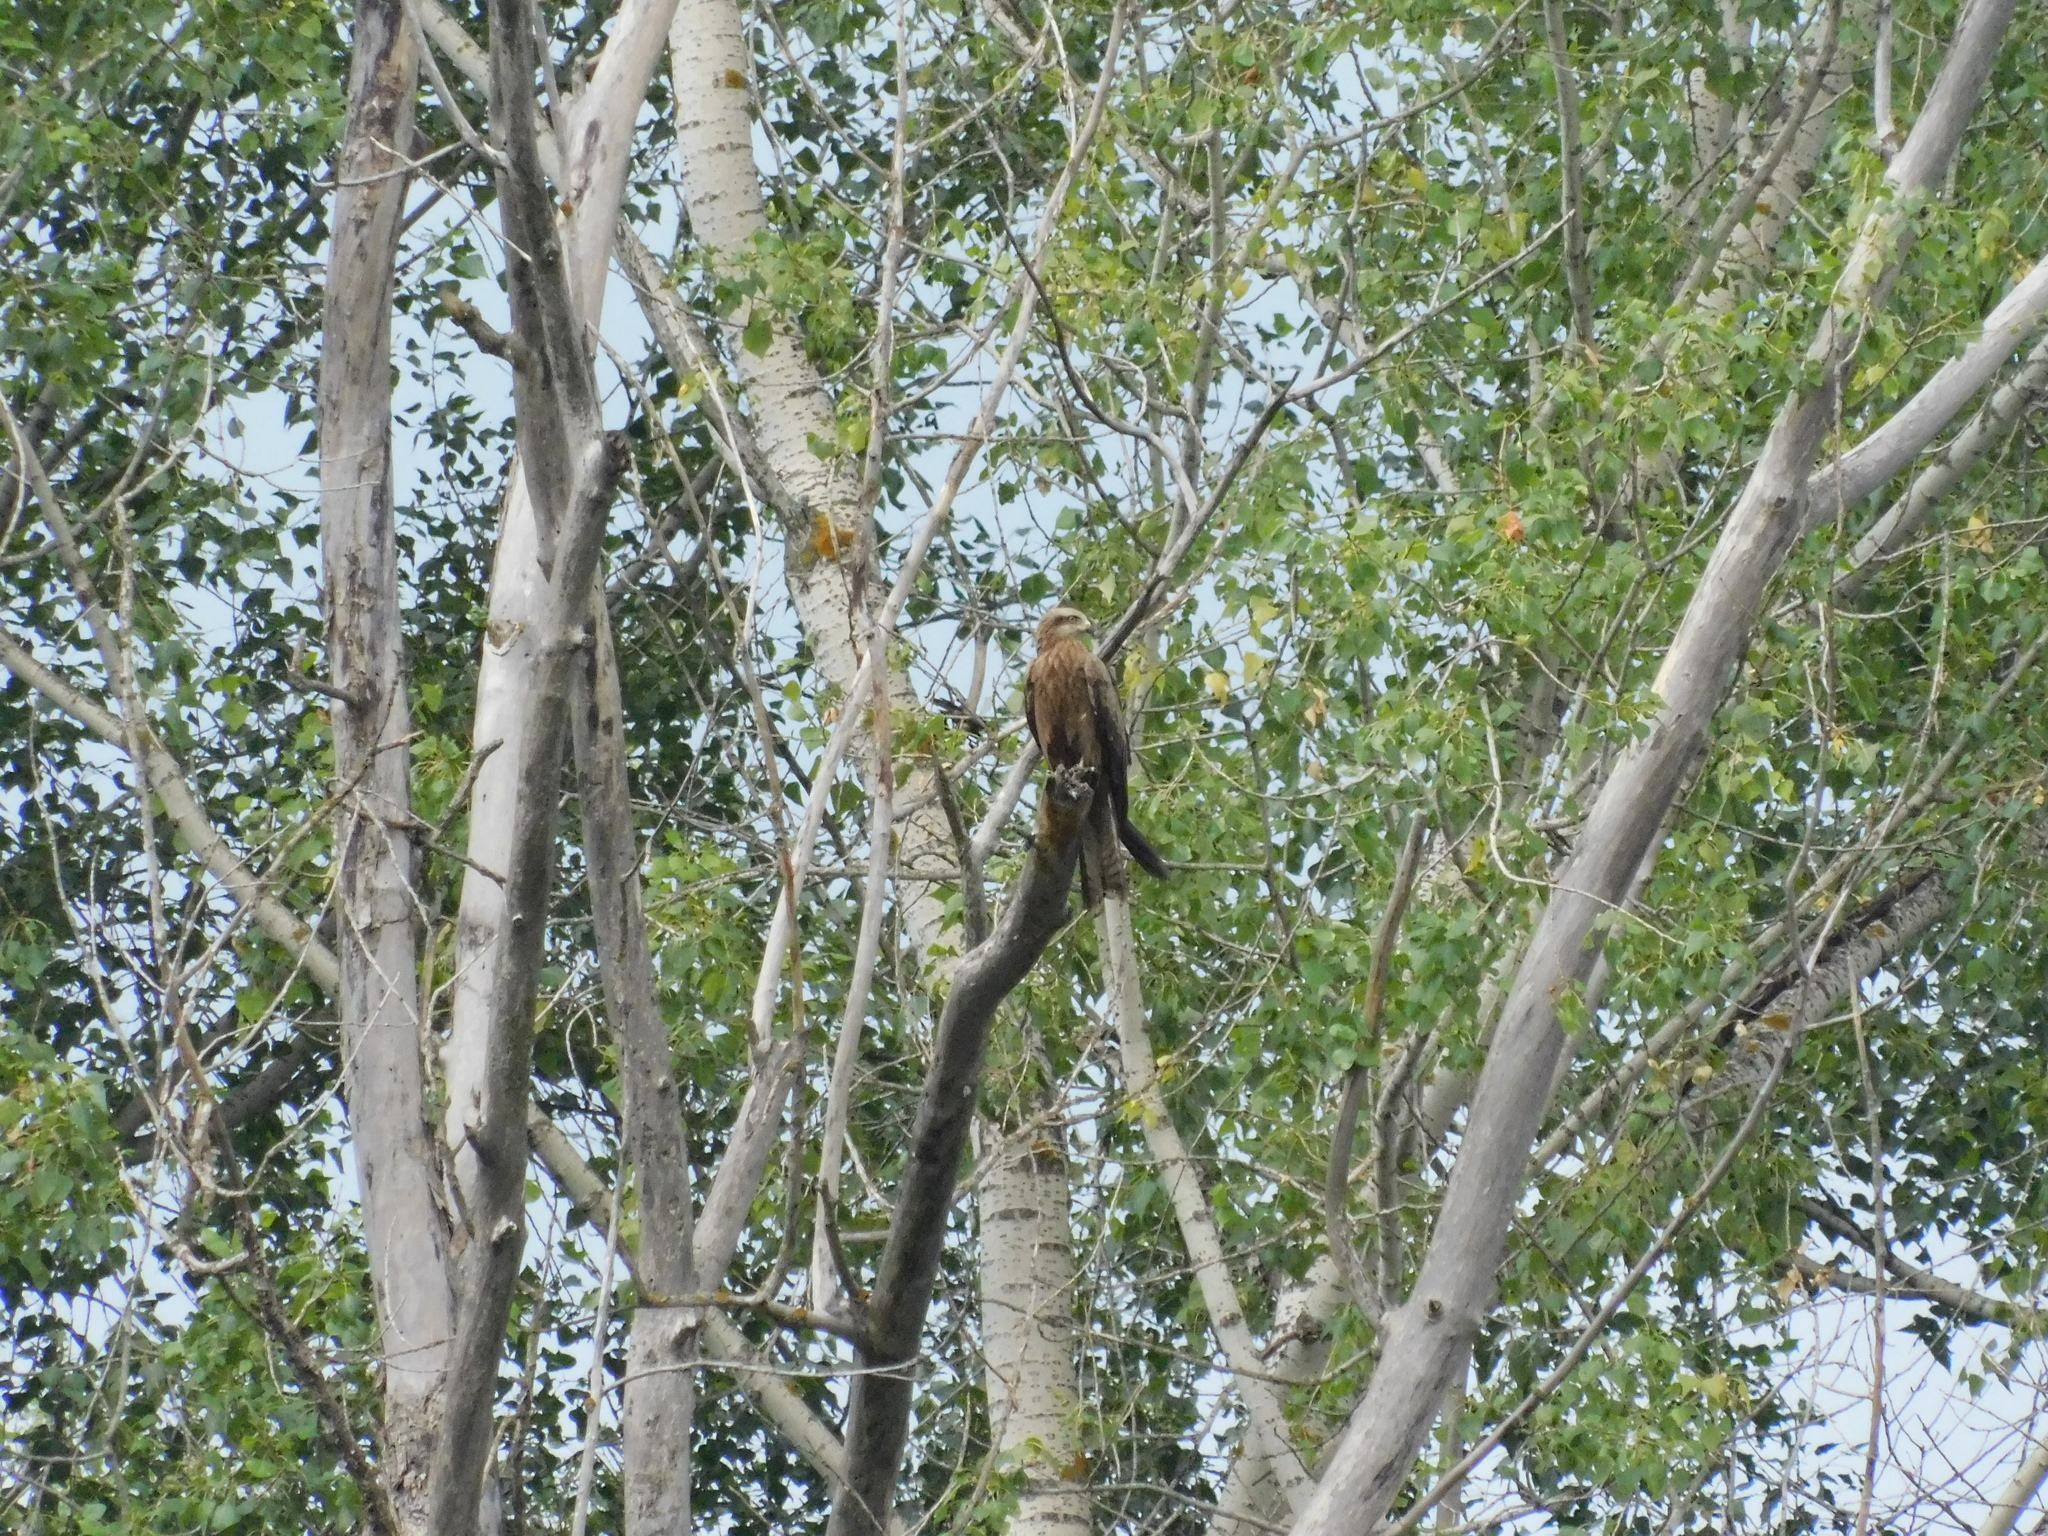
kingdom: Animalia
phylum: Chordata
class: Aves
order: Accipitriformes
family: Accipitridae
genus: Milvus
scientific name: Milvus migrans
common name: Black kite
